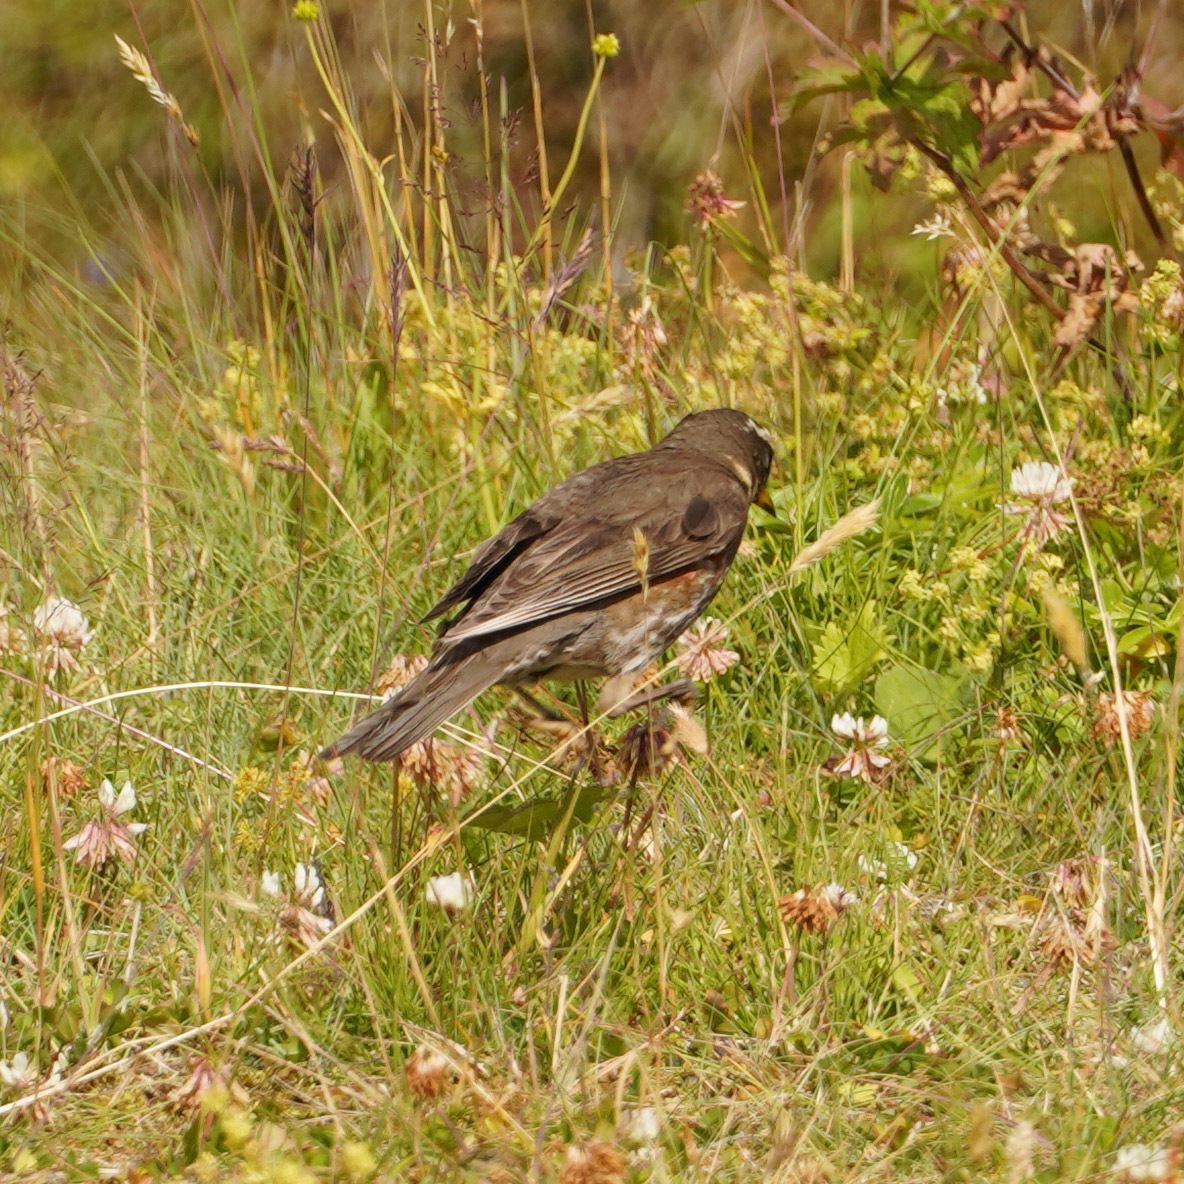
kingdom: Animalia
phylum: Chordata
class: Aves
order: Passeriformes
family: Turdidae
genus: Turdus
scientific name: Turdus iliacus
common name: Redwing
